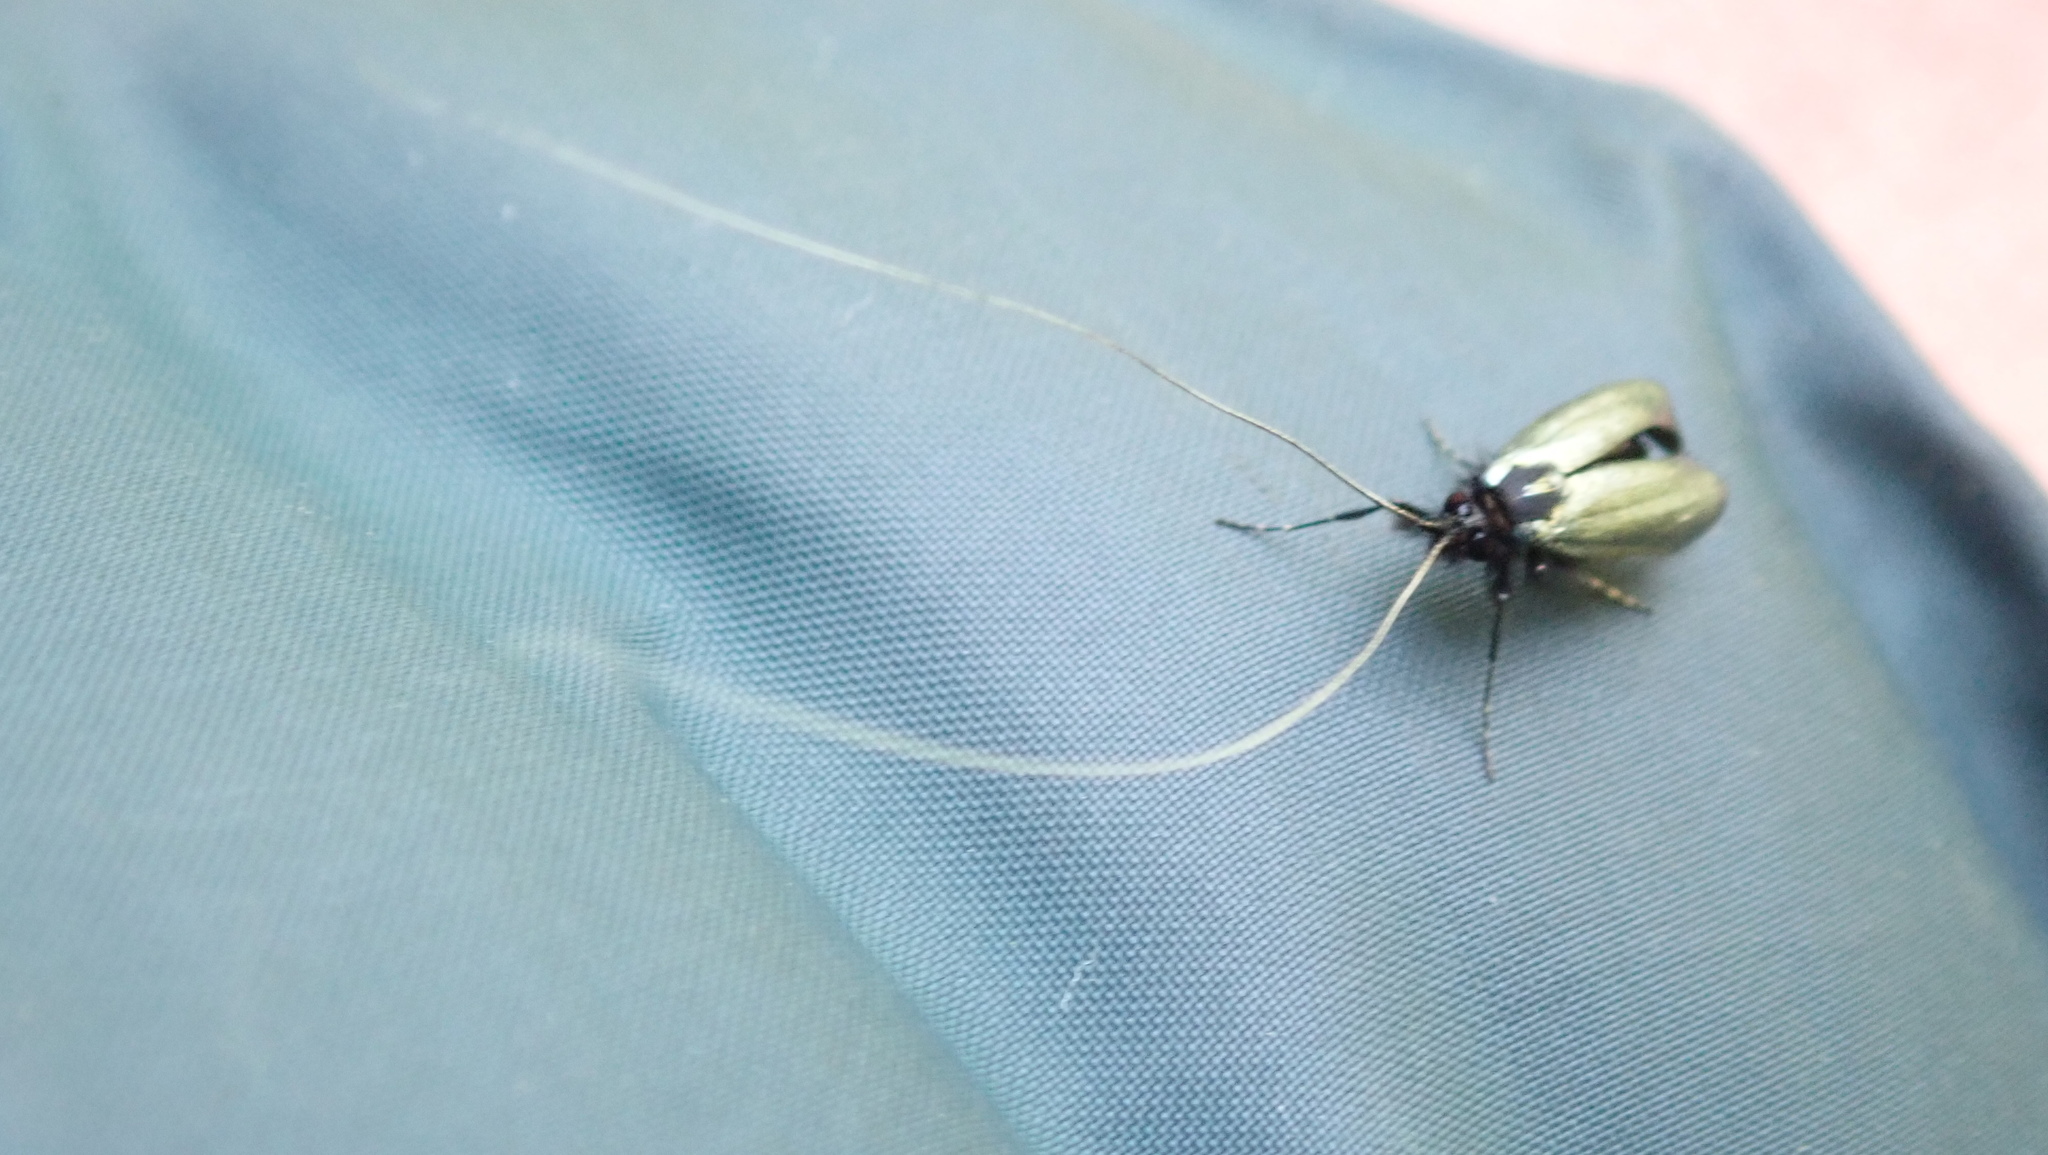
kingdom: Animalia
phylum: Arthropoda
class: Insecta
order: Lepidoptera
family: Adelidae
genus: Adela
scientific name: Adela viridella
